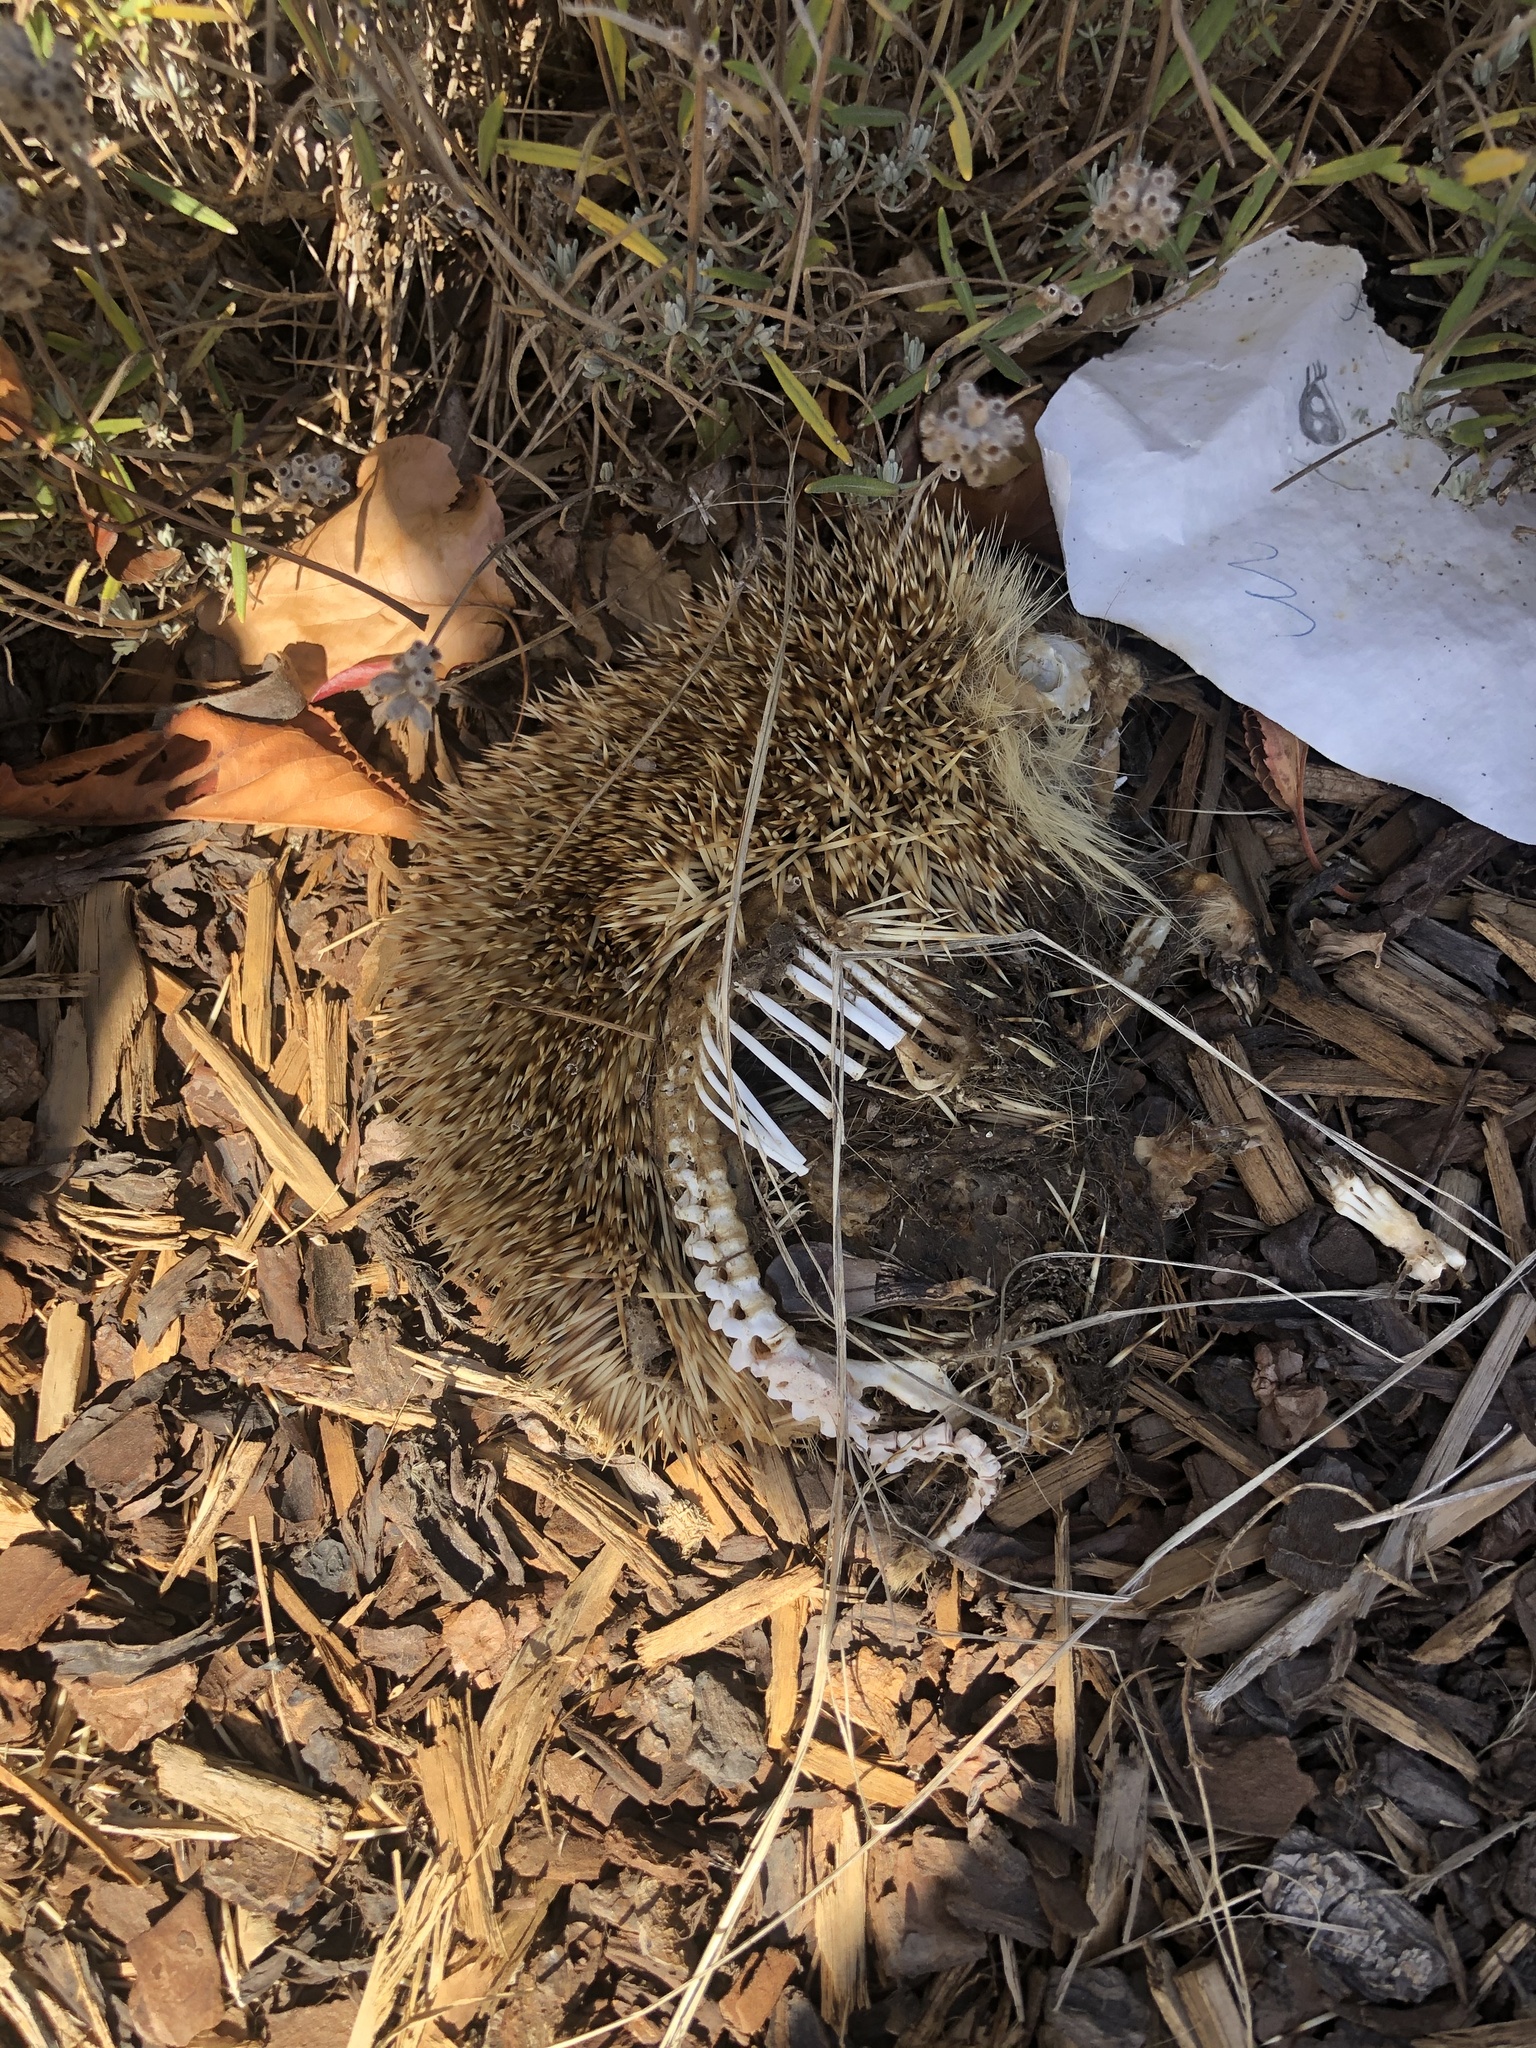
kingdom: Animalia
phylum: Chordata
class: Mammalia
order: Erinaceomorpha
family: Erinaceidae
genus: Erinaceus
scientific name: Erinaceus europaeus
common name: West european hedgehog
